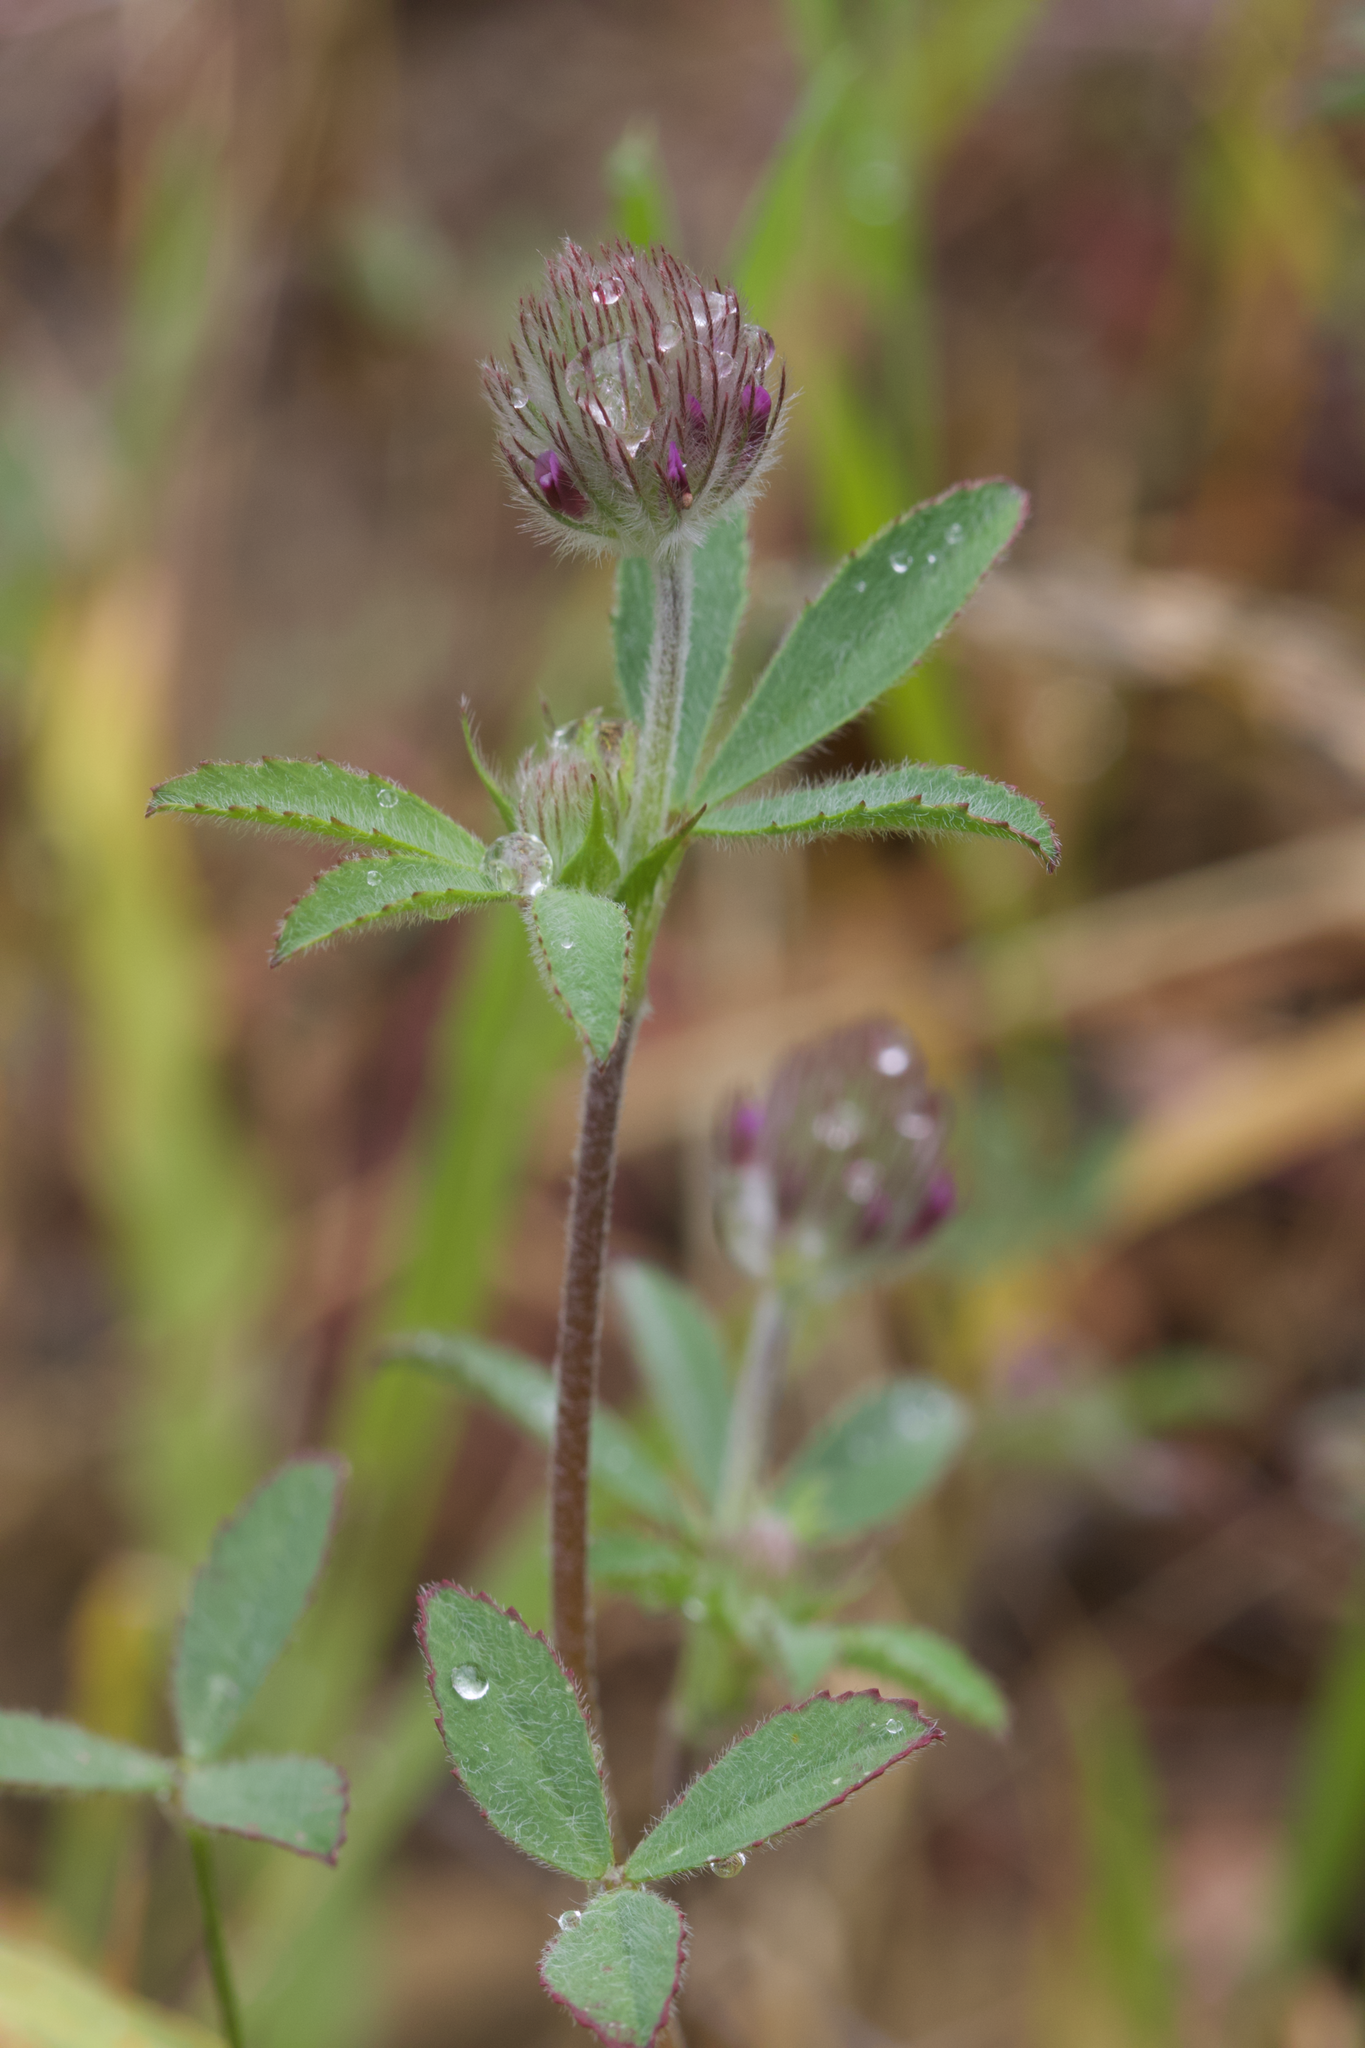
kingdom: Plantae
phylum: Tracheophyta
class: Magnoliopsida
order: Fabales
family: Fabaceae
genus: Trifolium
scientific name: Trifolium albopurpureum
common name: Rancheria clover
